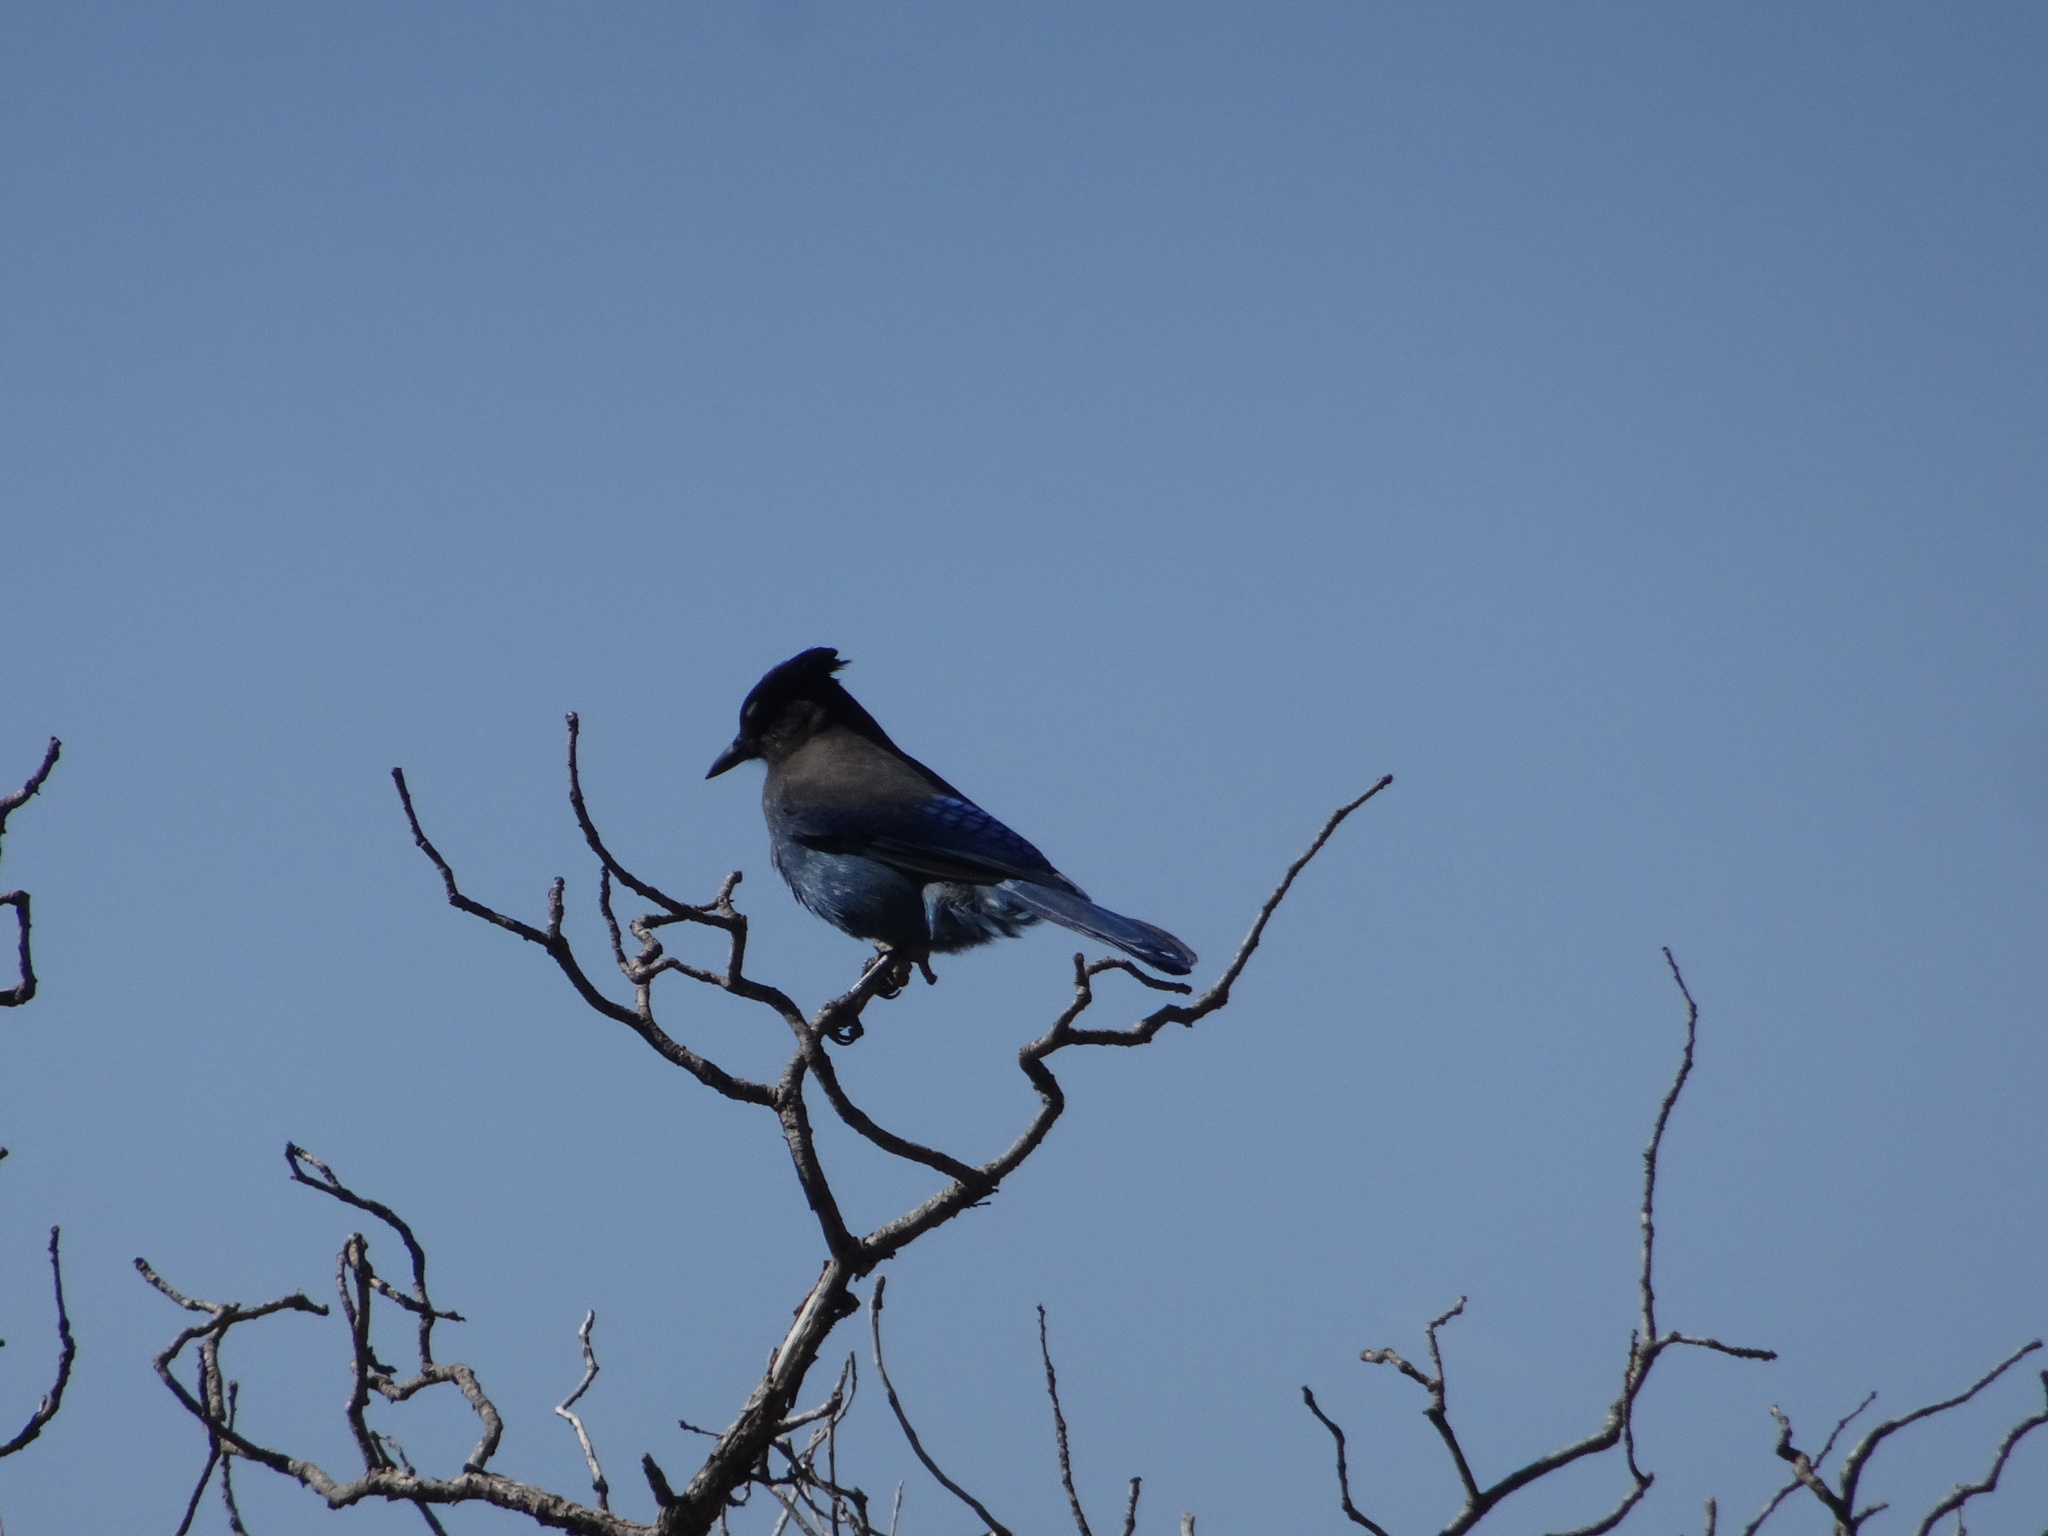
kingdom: Animalia
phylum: Chordata
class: Aves
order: Passeriformes
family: Corvidae
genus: Cyanocitta
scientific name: Cyanocitta stelleri
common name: Steller's jay
